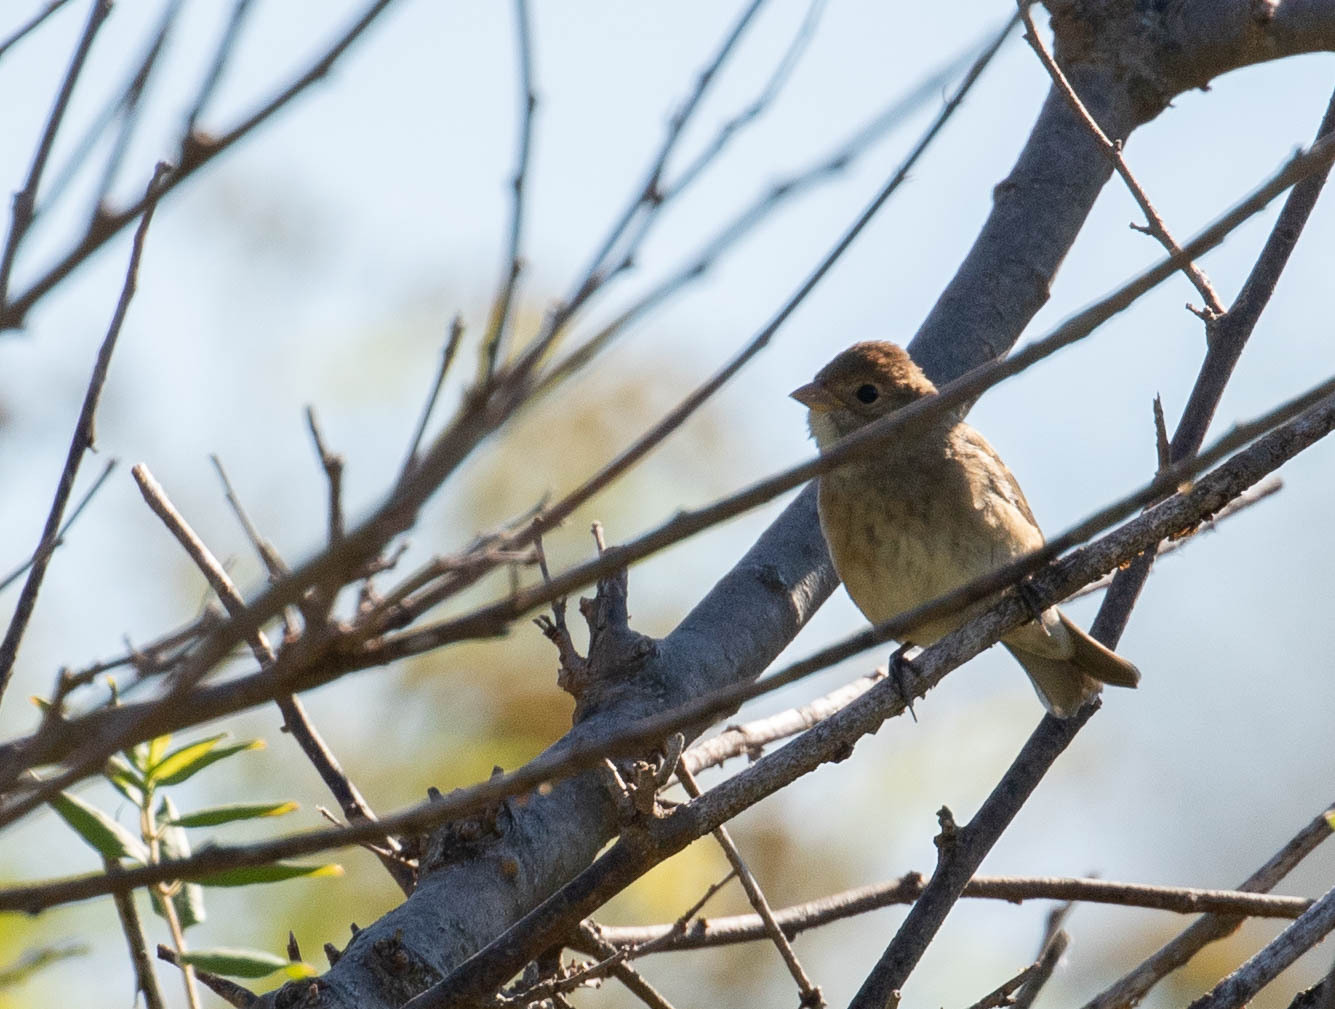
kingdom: Animalia
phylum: Chordata
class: Aves
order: Passeriformes
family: Cardinalidae
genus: Passerina
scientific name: Passerina cyanea
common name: Indigo bunting
